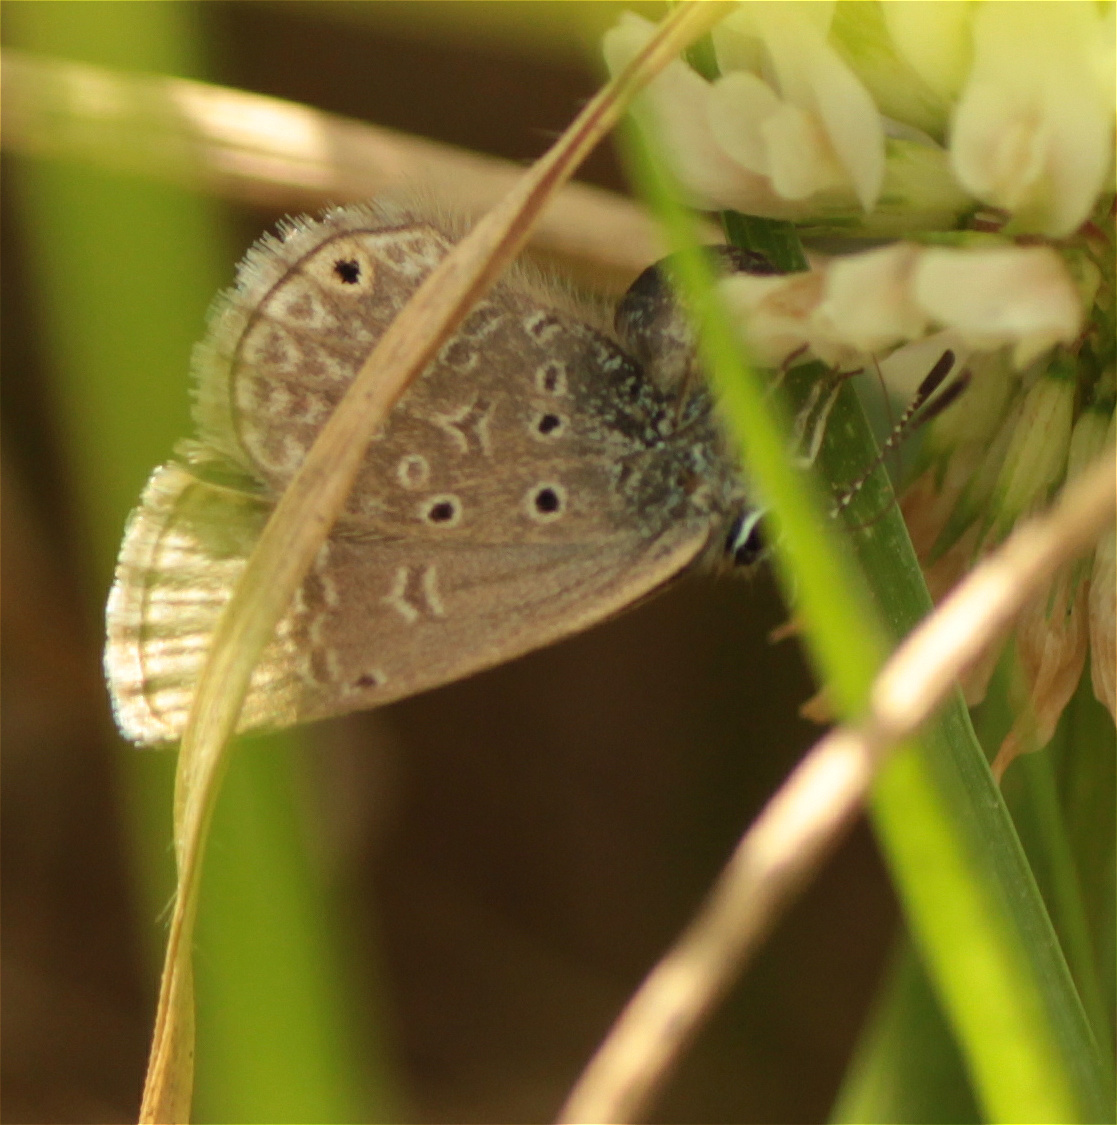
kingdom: Animalia
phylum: Arthropoda
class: Insecta
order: Lepidoptera
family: Lycaenidae
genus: Hemiargus
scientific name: Hemiargus hanno
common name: Common blue
